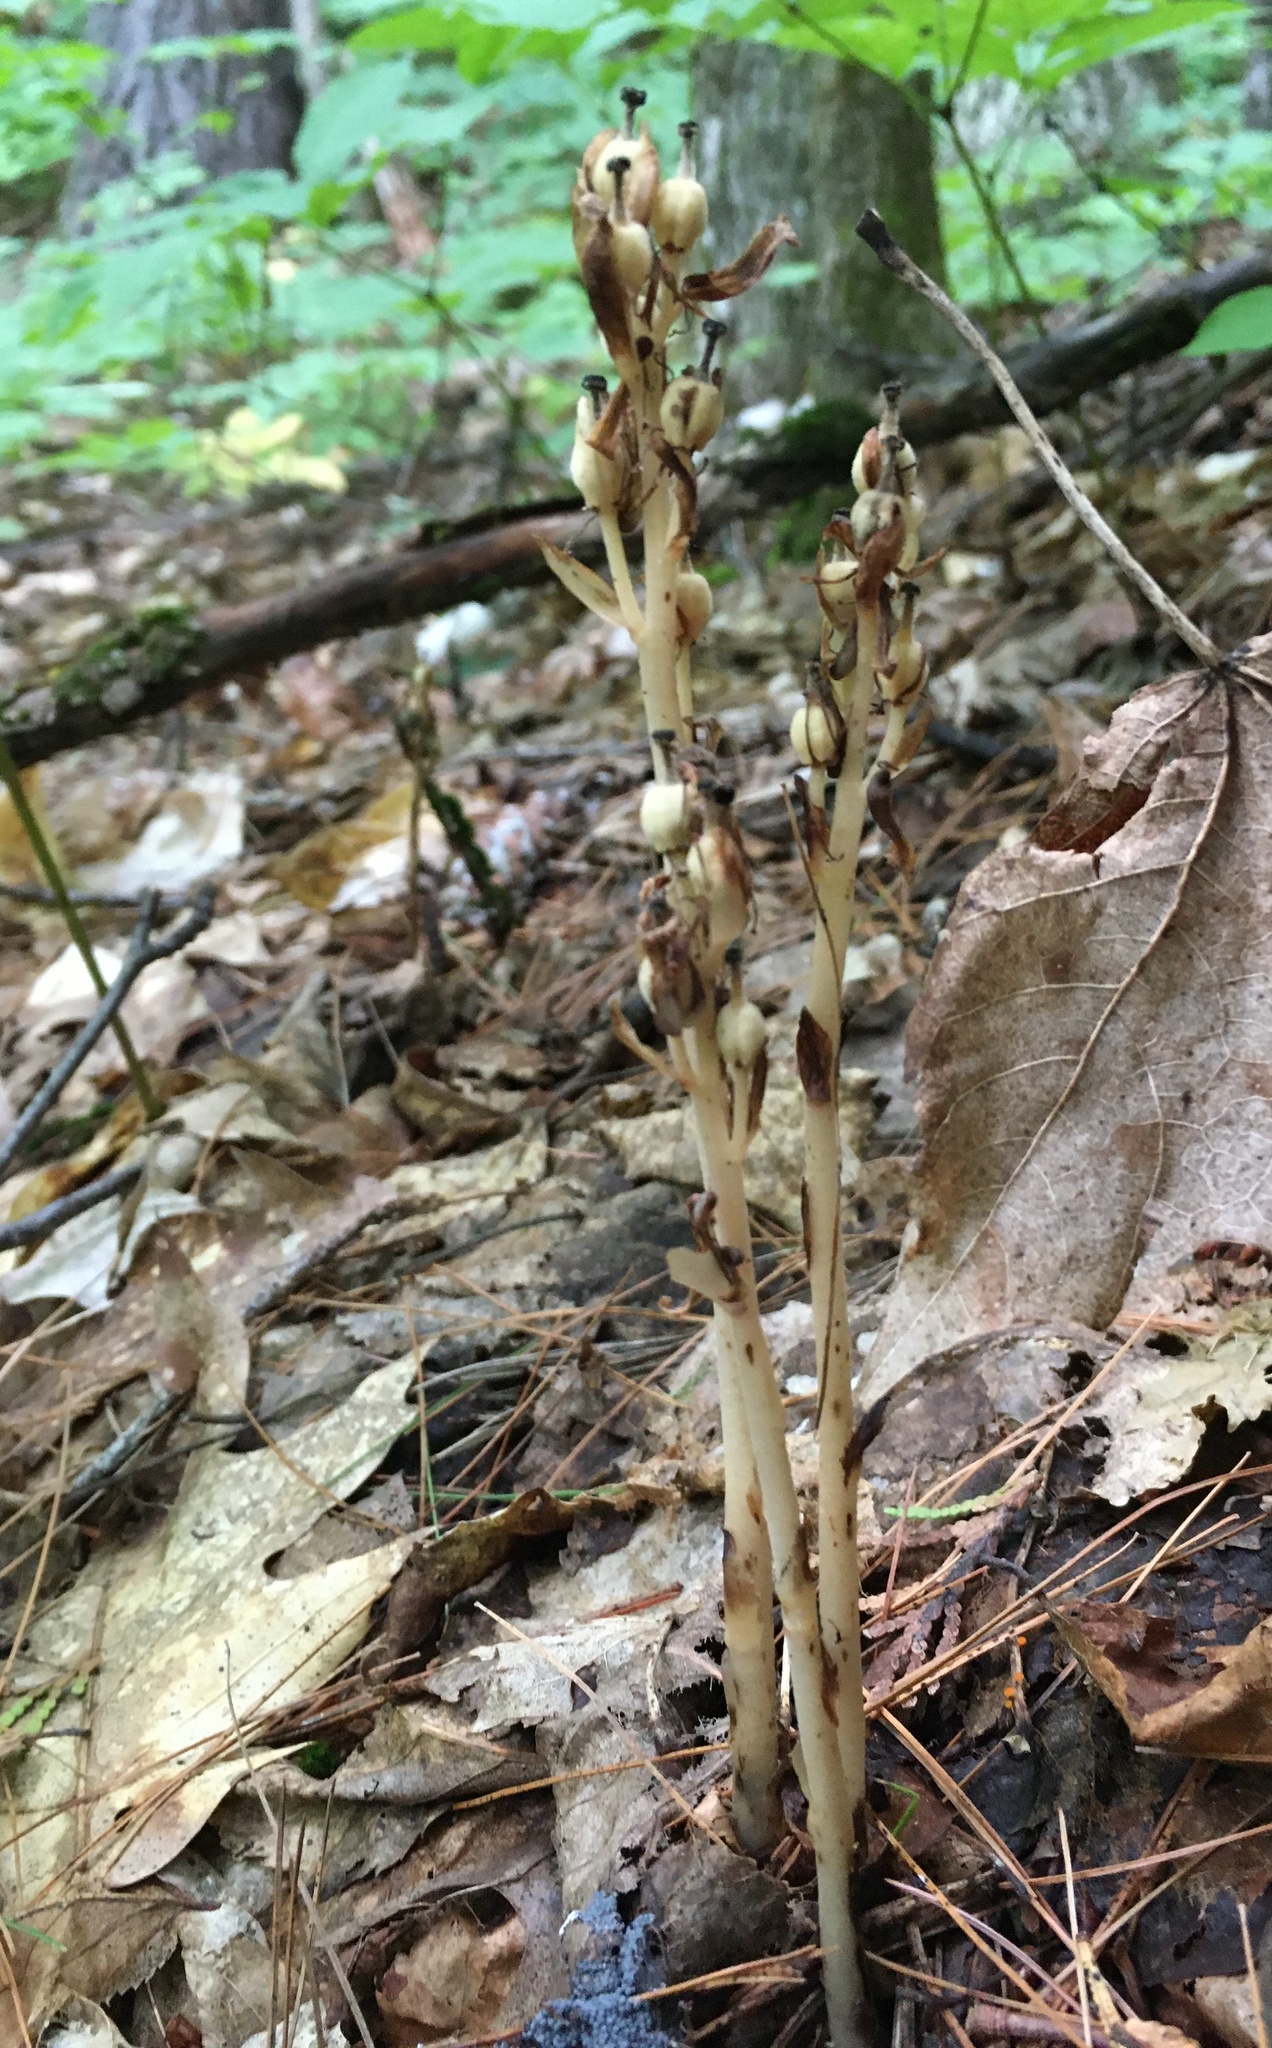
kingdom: Plantae
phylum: Tracheophyta
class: Magnoliopsida
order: Ericales
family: Ericaceae
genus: Hypopitys
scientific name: Hypopitys monotropa
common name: Yellow bird's-nest
